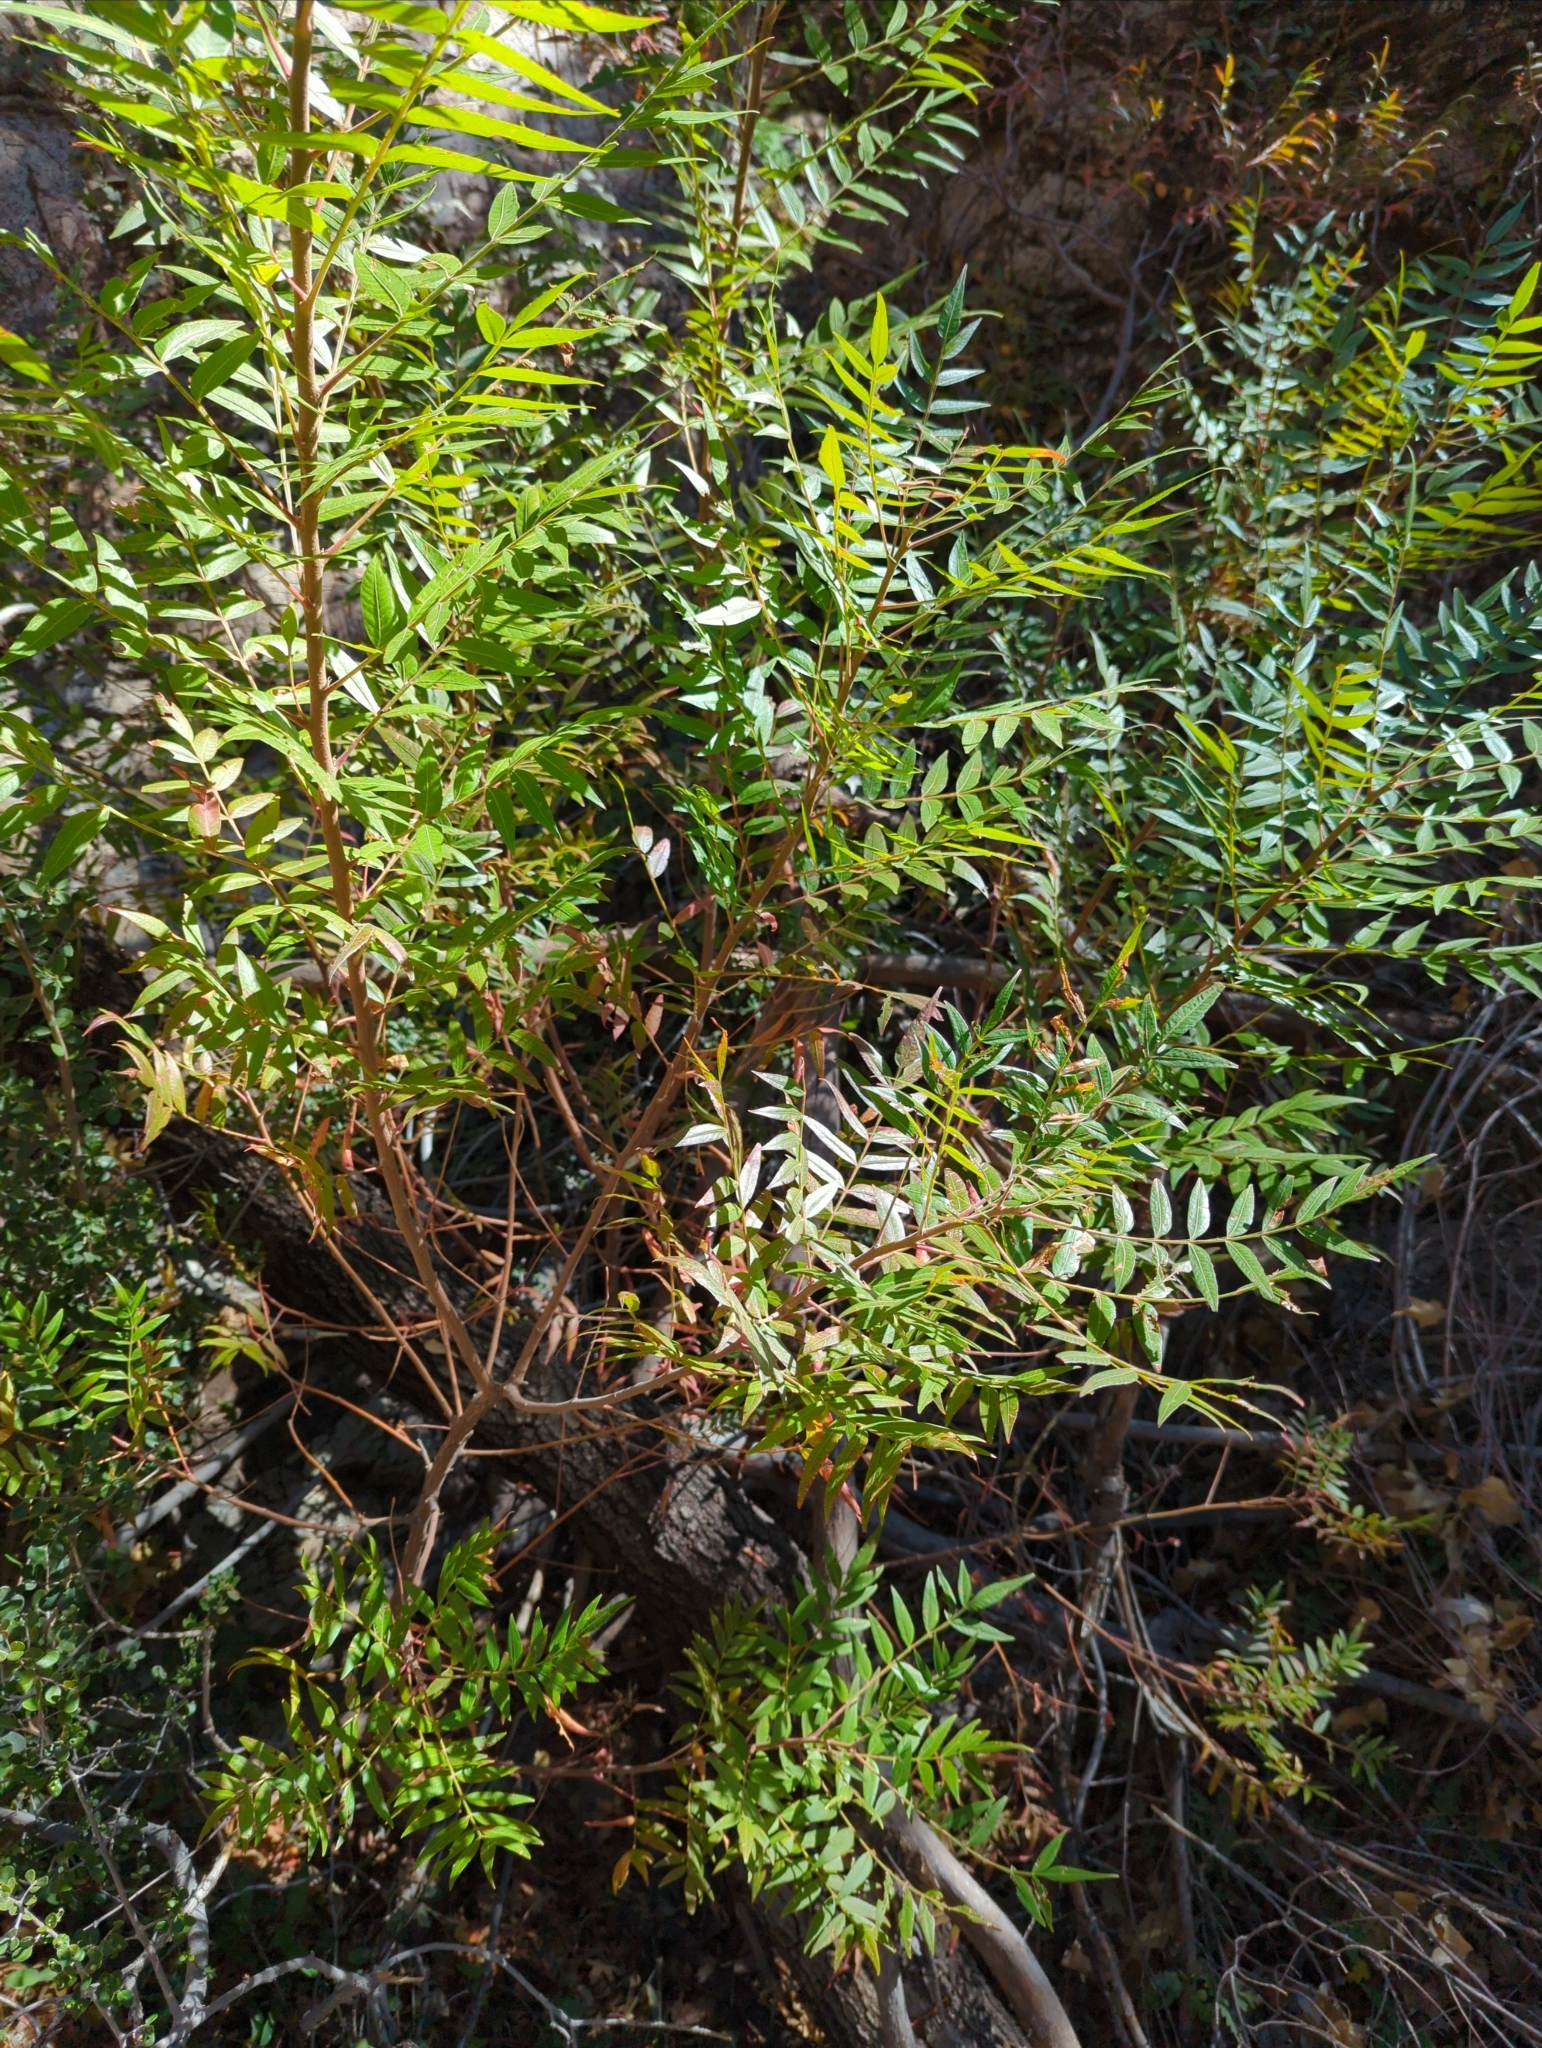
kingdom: Plantae
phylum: Tracheophyta
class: Magnoliopsida
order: Sapindales
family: Anacardiaceae
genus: Rhus
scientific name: Rhus lanceolata
